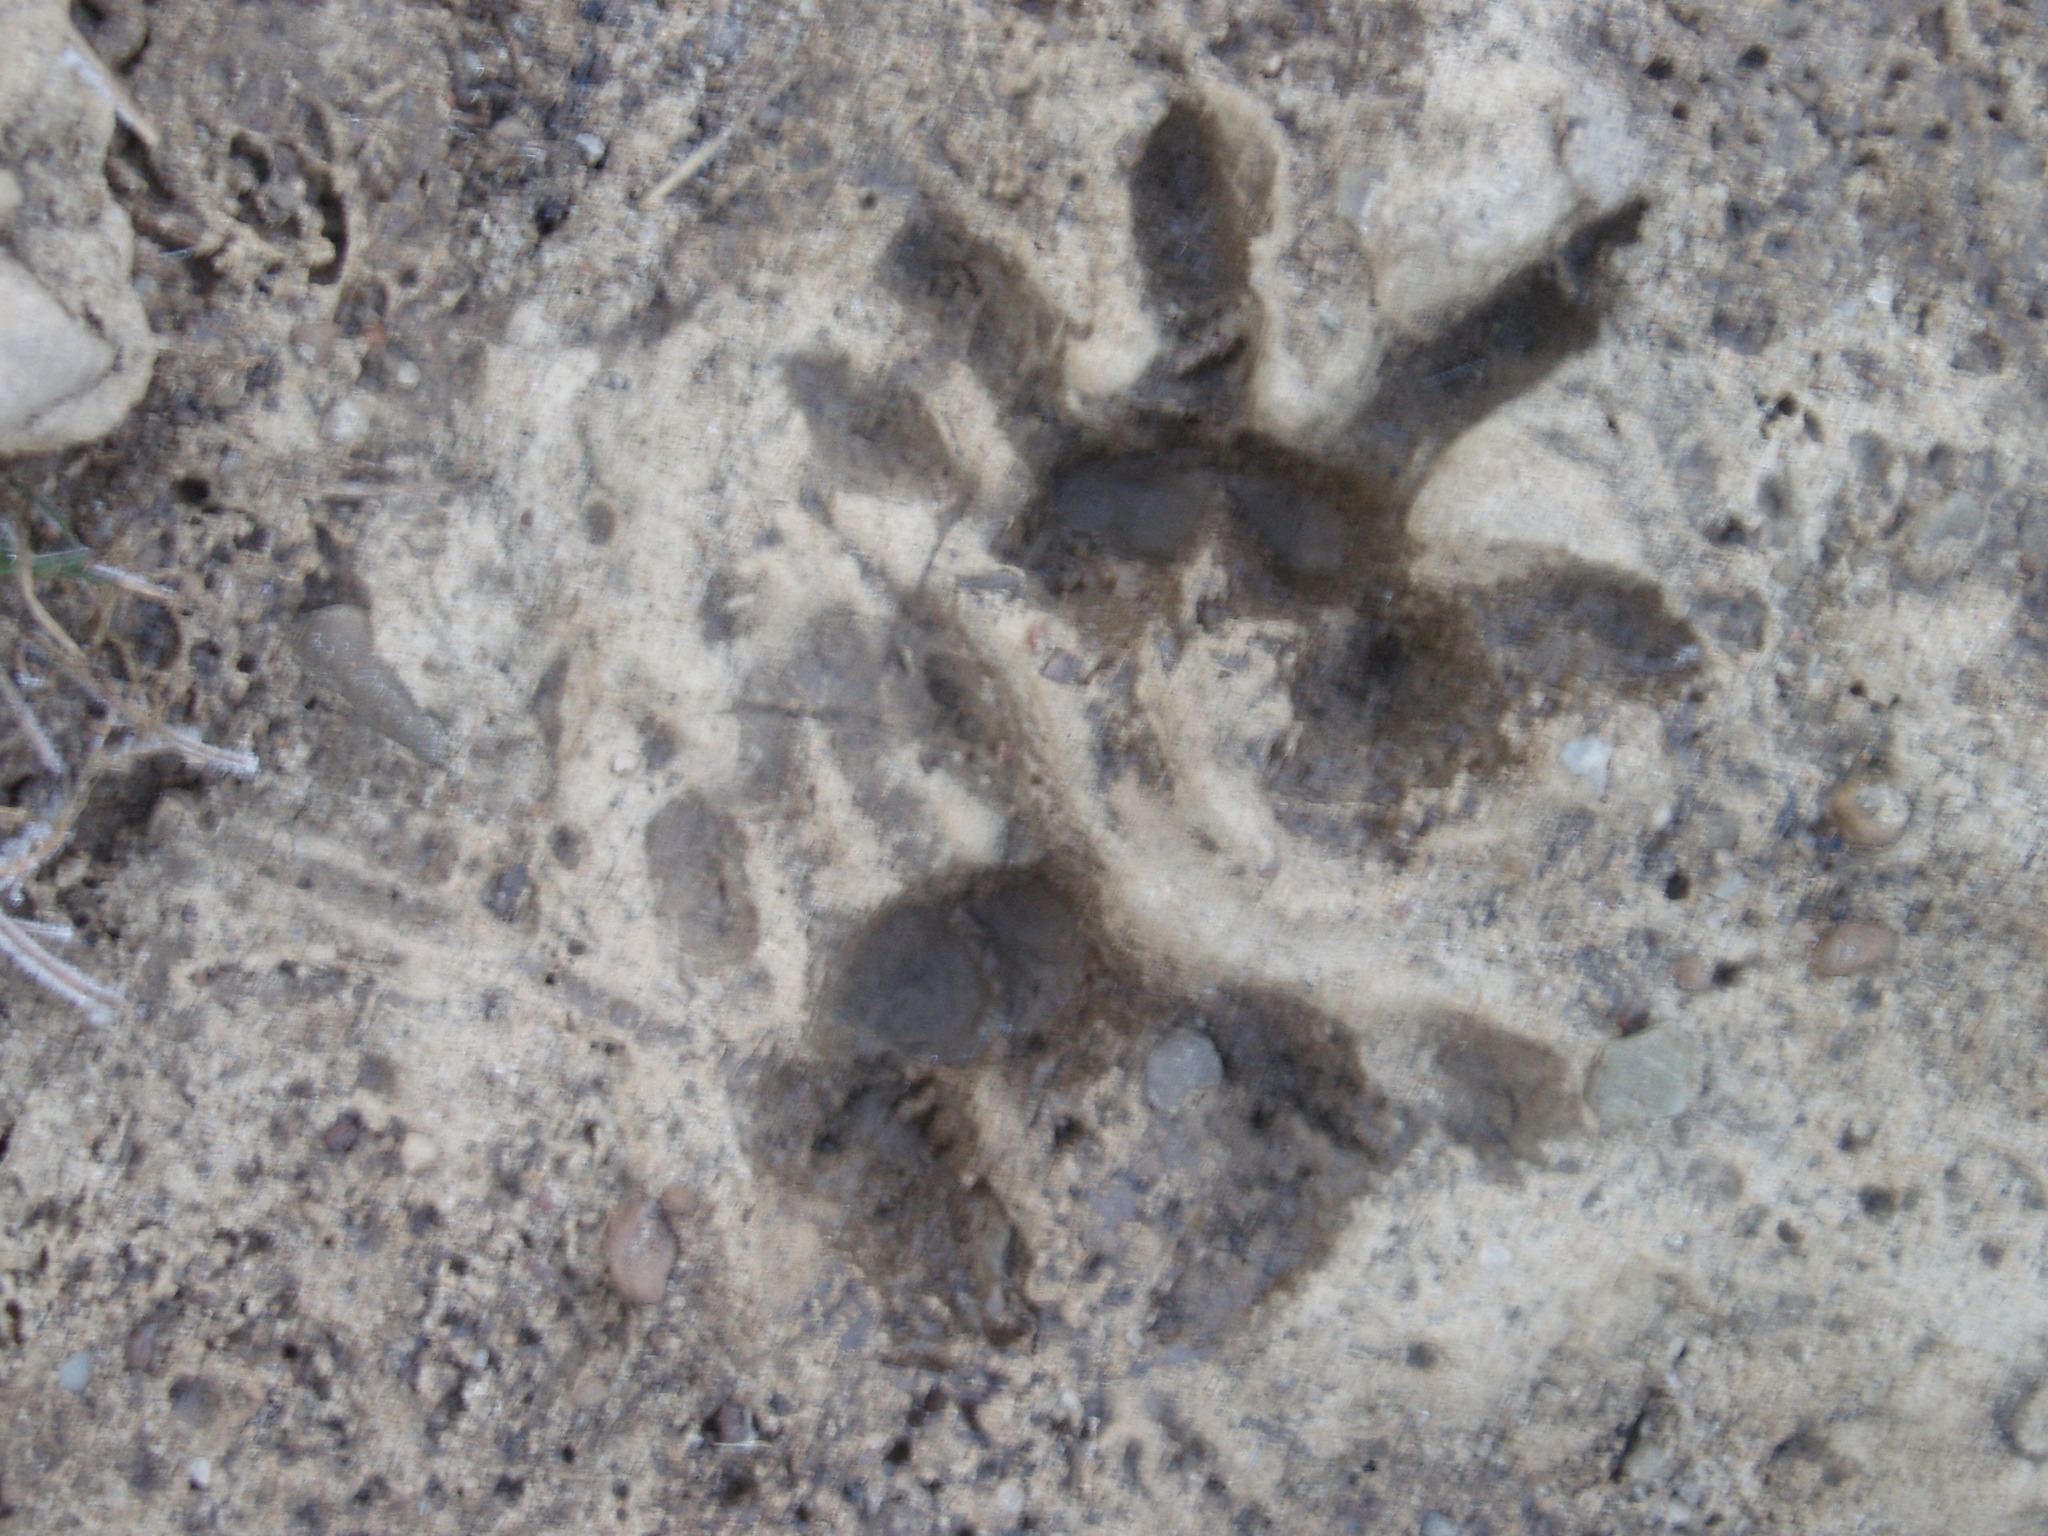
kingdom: Animalia
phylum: Chordata
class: Mammalia
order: Didelphimorphia
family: Didelphidae
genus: Didelphis
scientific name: Didelphis virginiana
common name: Virginia opossum
